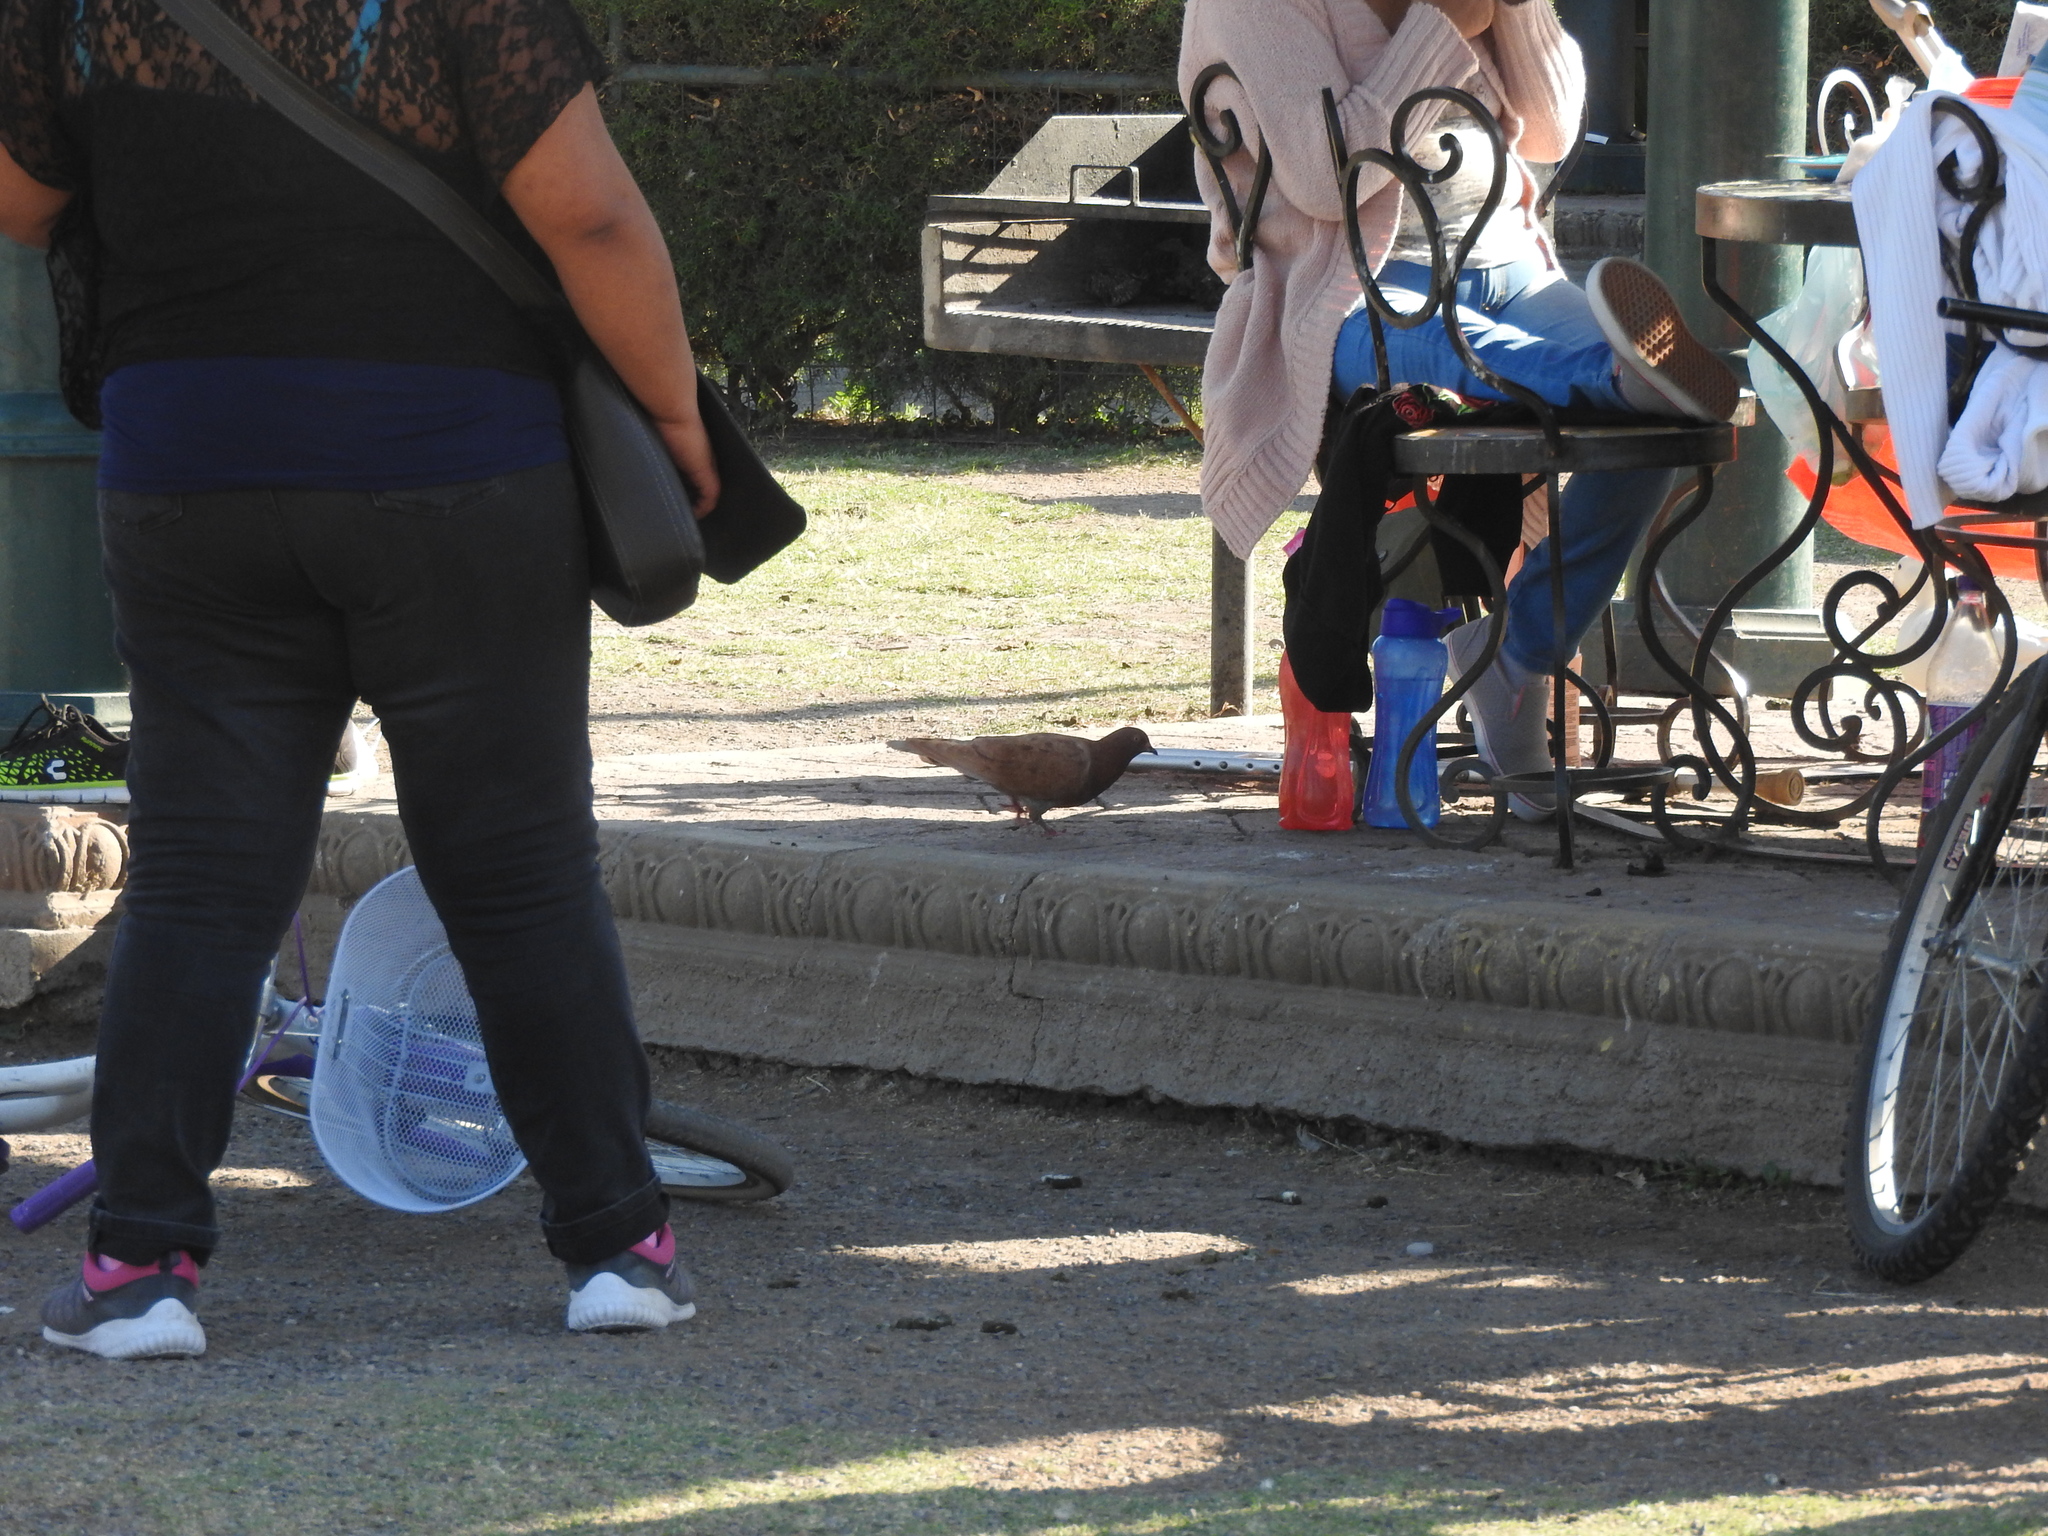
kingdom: Animalia
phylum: Chordata
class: Aves
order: Columbiformes
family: Columbidae
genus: Columba
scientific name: Columba livia
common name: Rock pigeon
